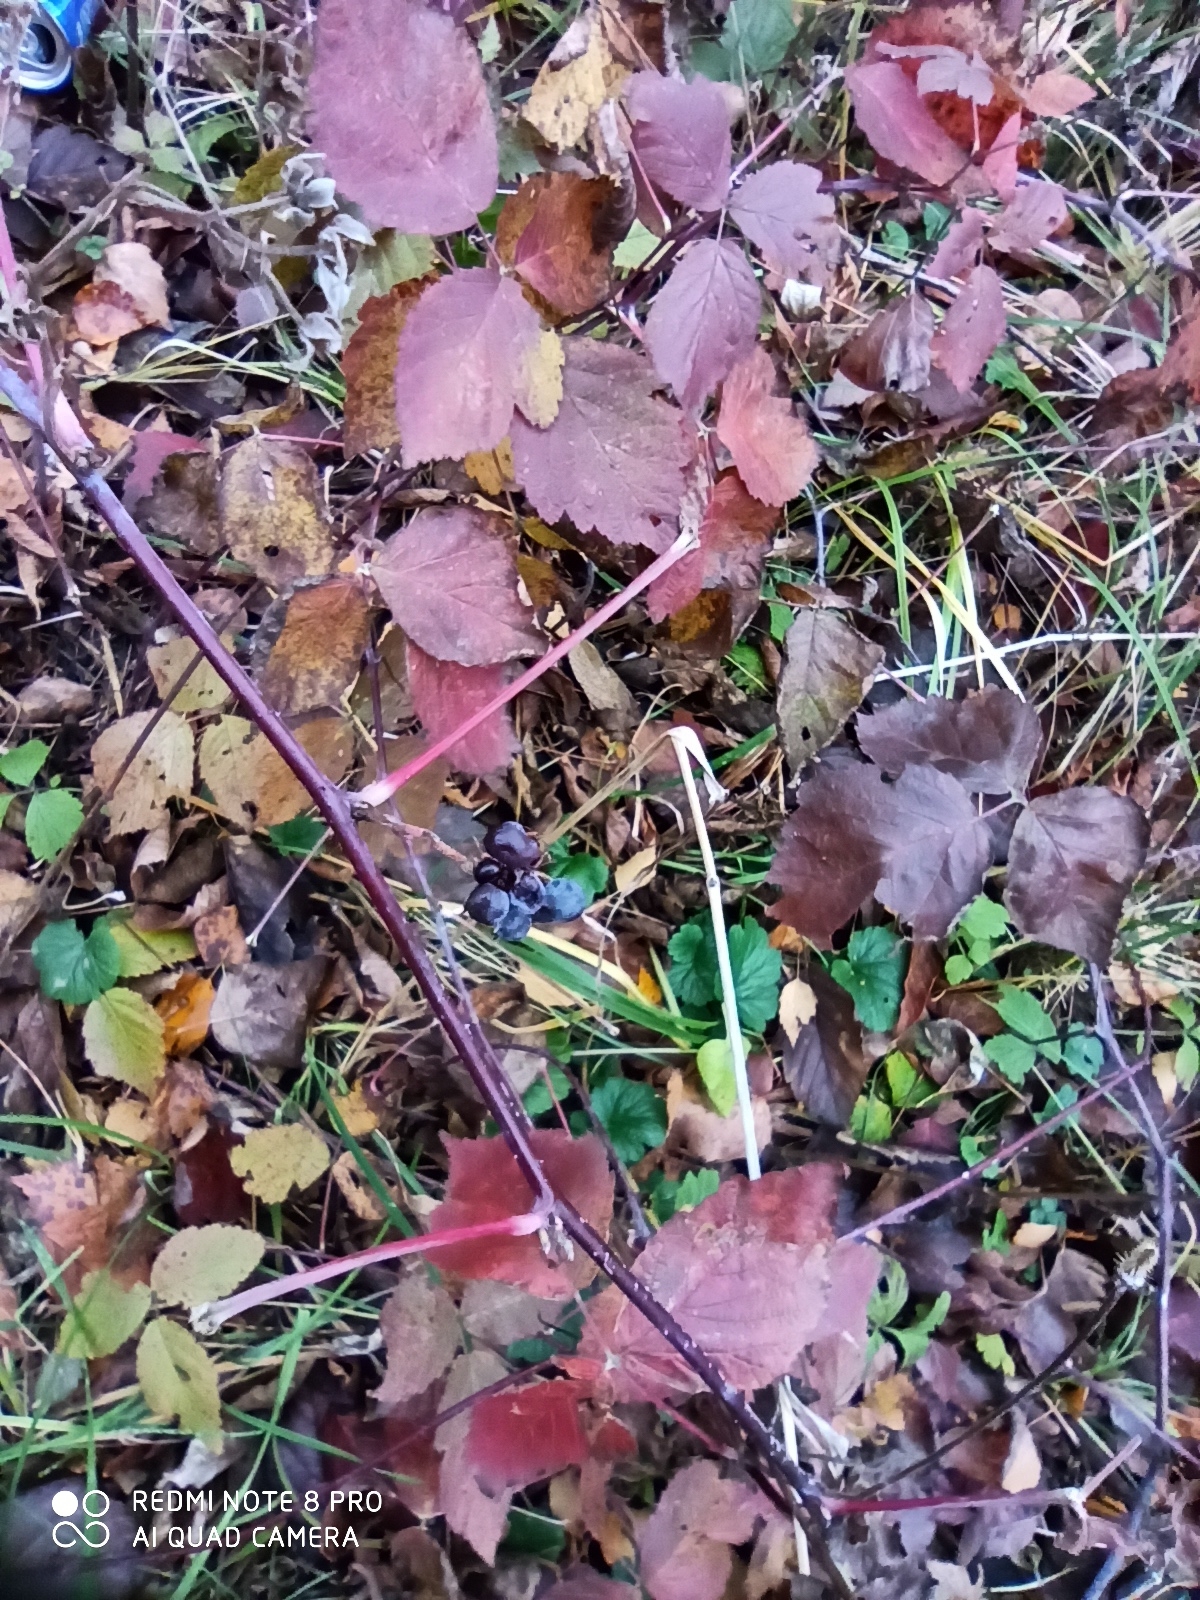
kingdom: Plantae
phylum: Tracheophyta
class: Magnoliopsida
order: Rosales
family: Rosaceae
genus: Rubus
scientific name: Rubus caesius
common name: Dewberry
